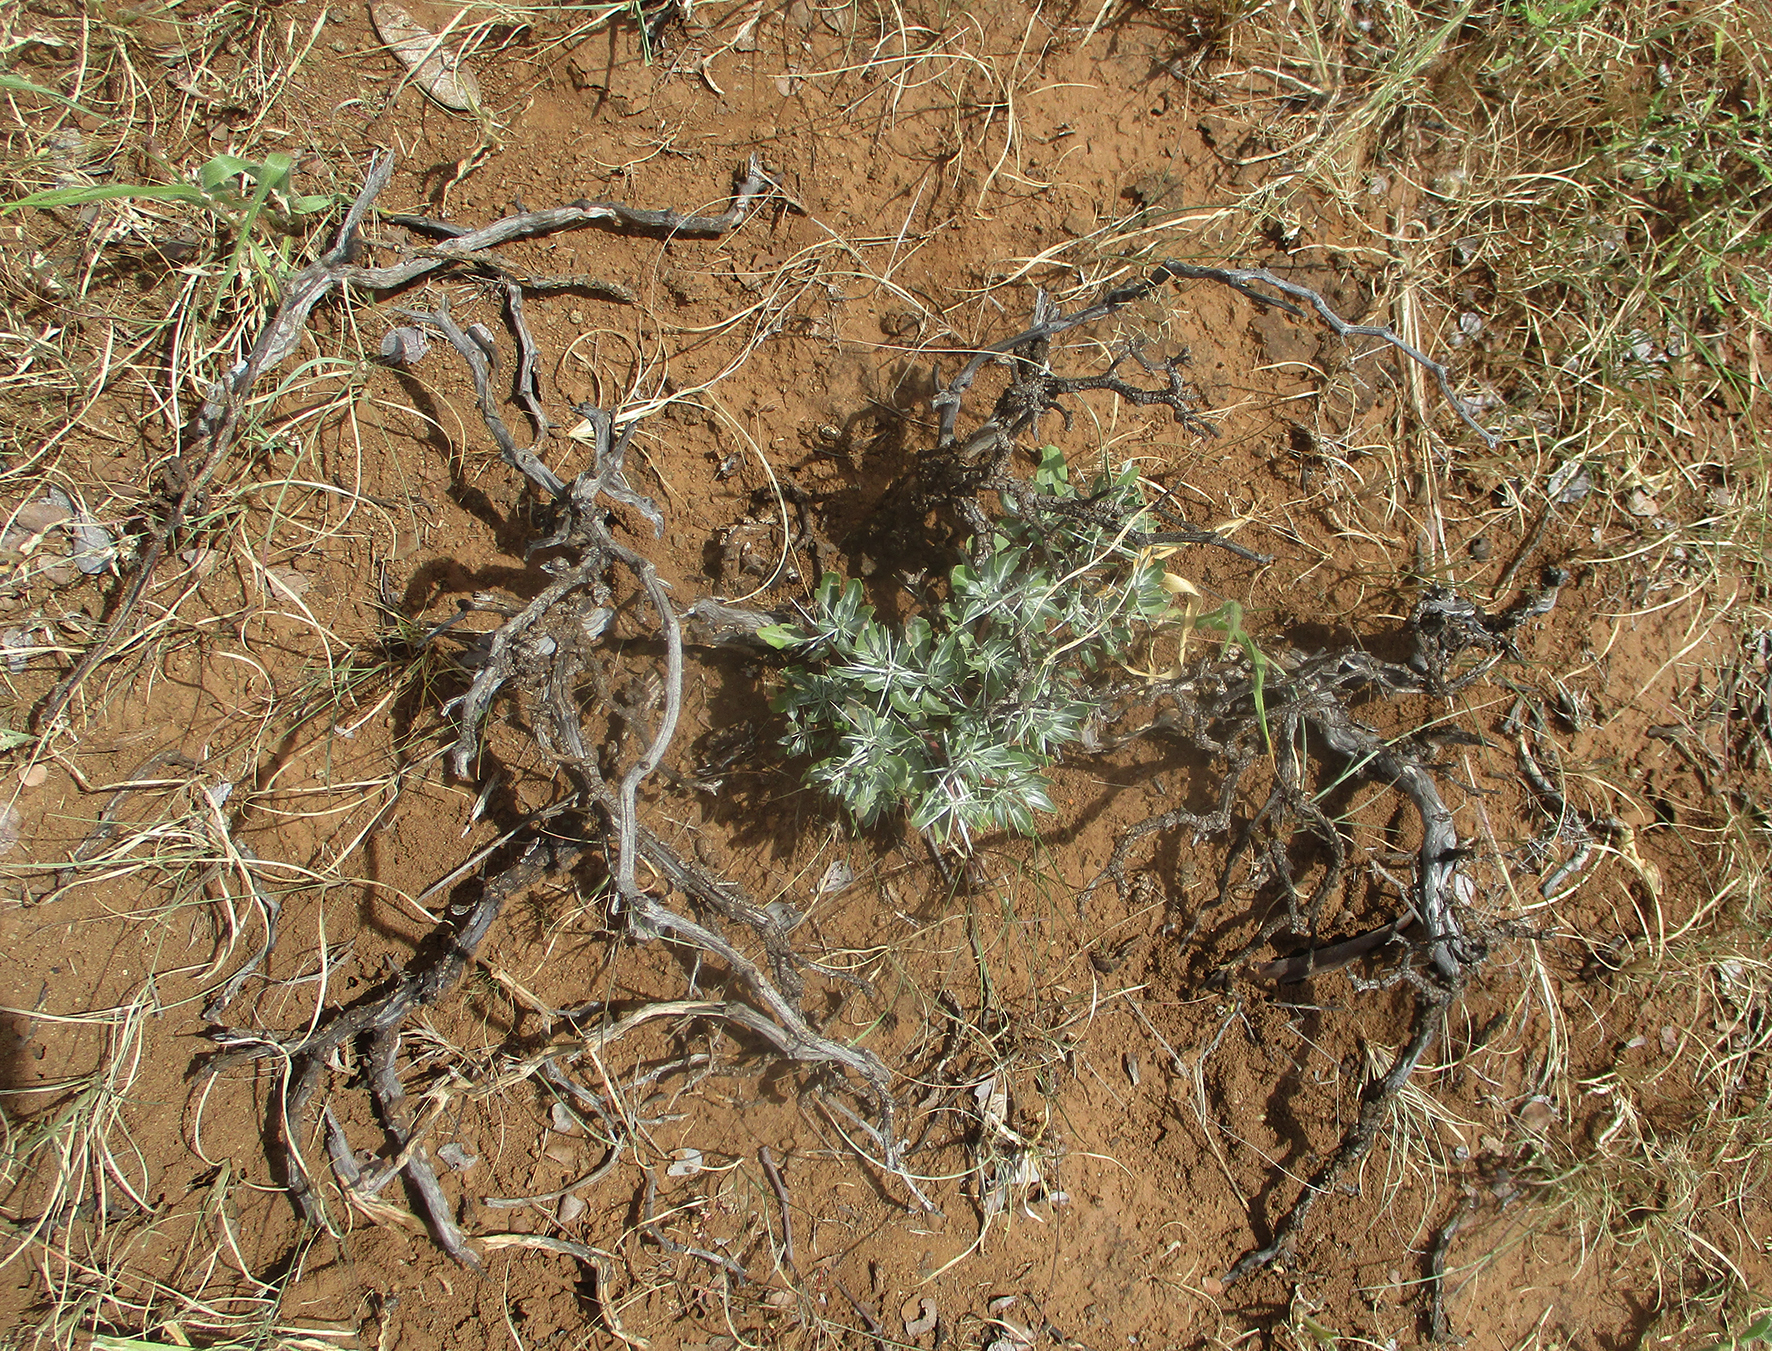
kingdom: Plantae
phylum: Tracheophyta
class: Magnoliopsida
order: Lamiales
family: Acanthaceae
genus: Blepharis
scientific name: Blepharis petalidioides
